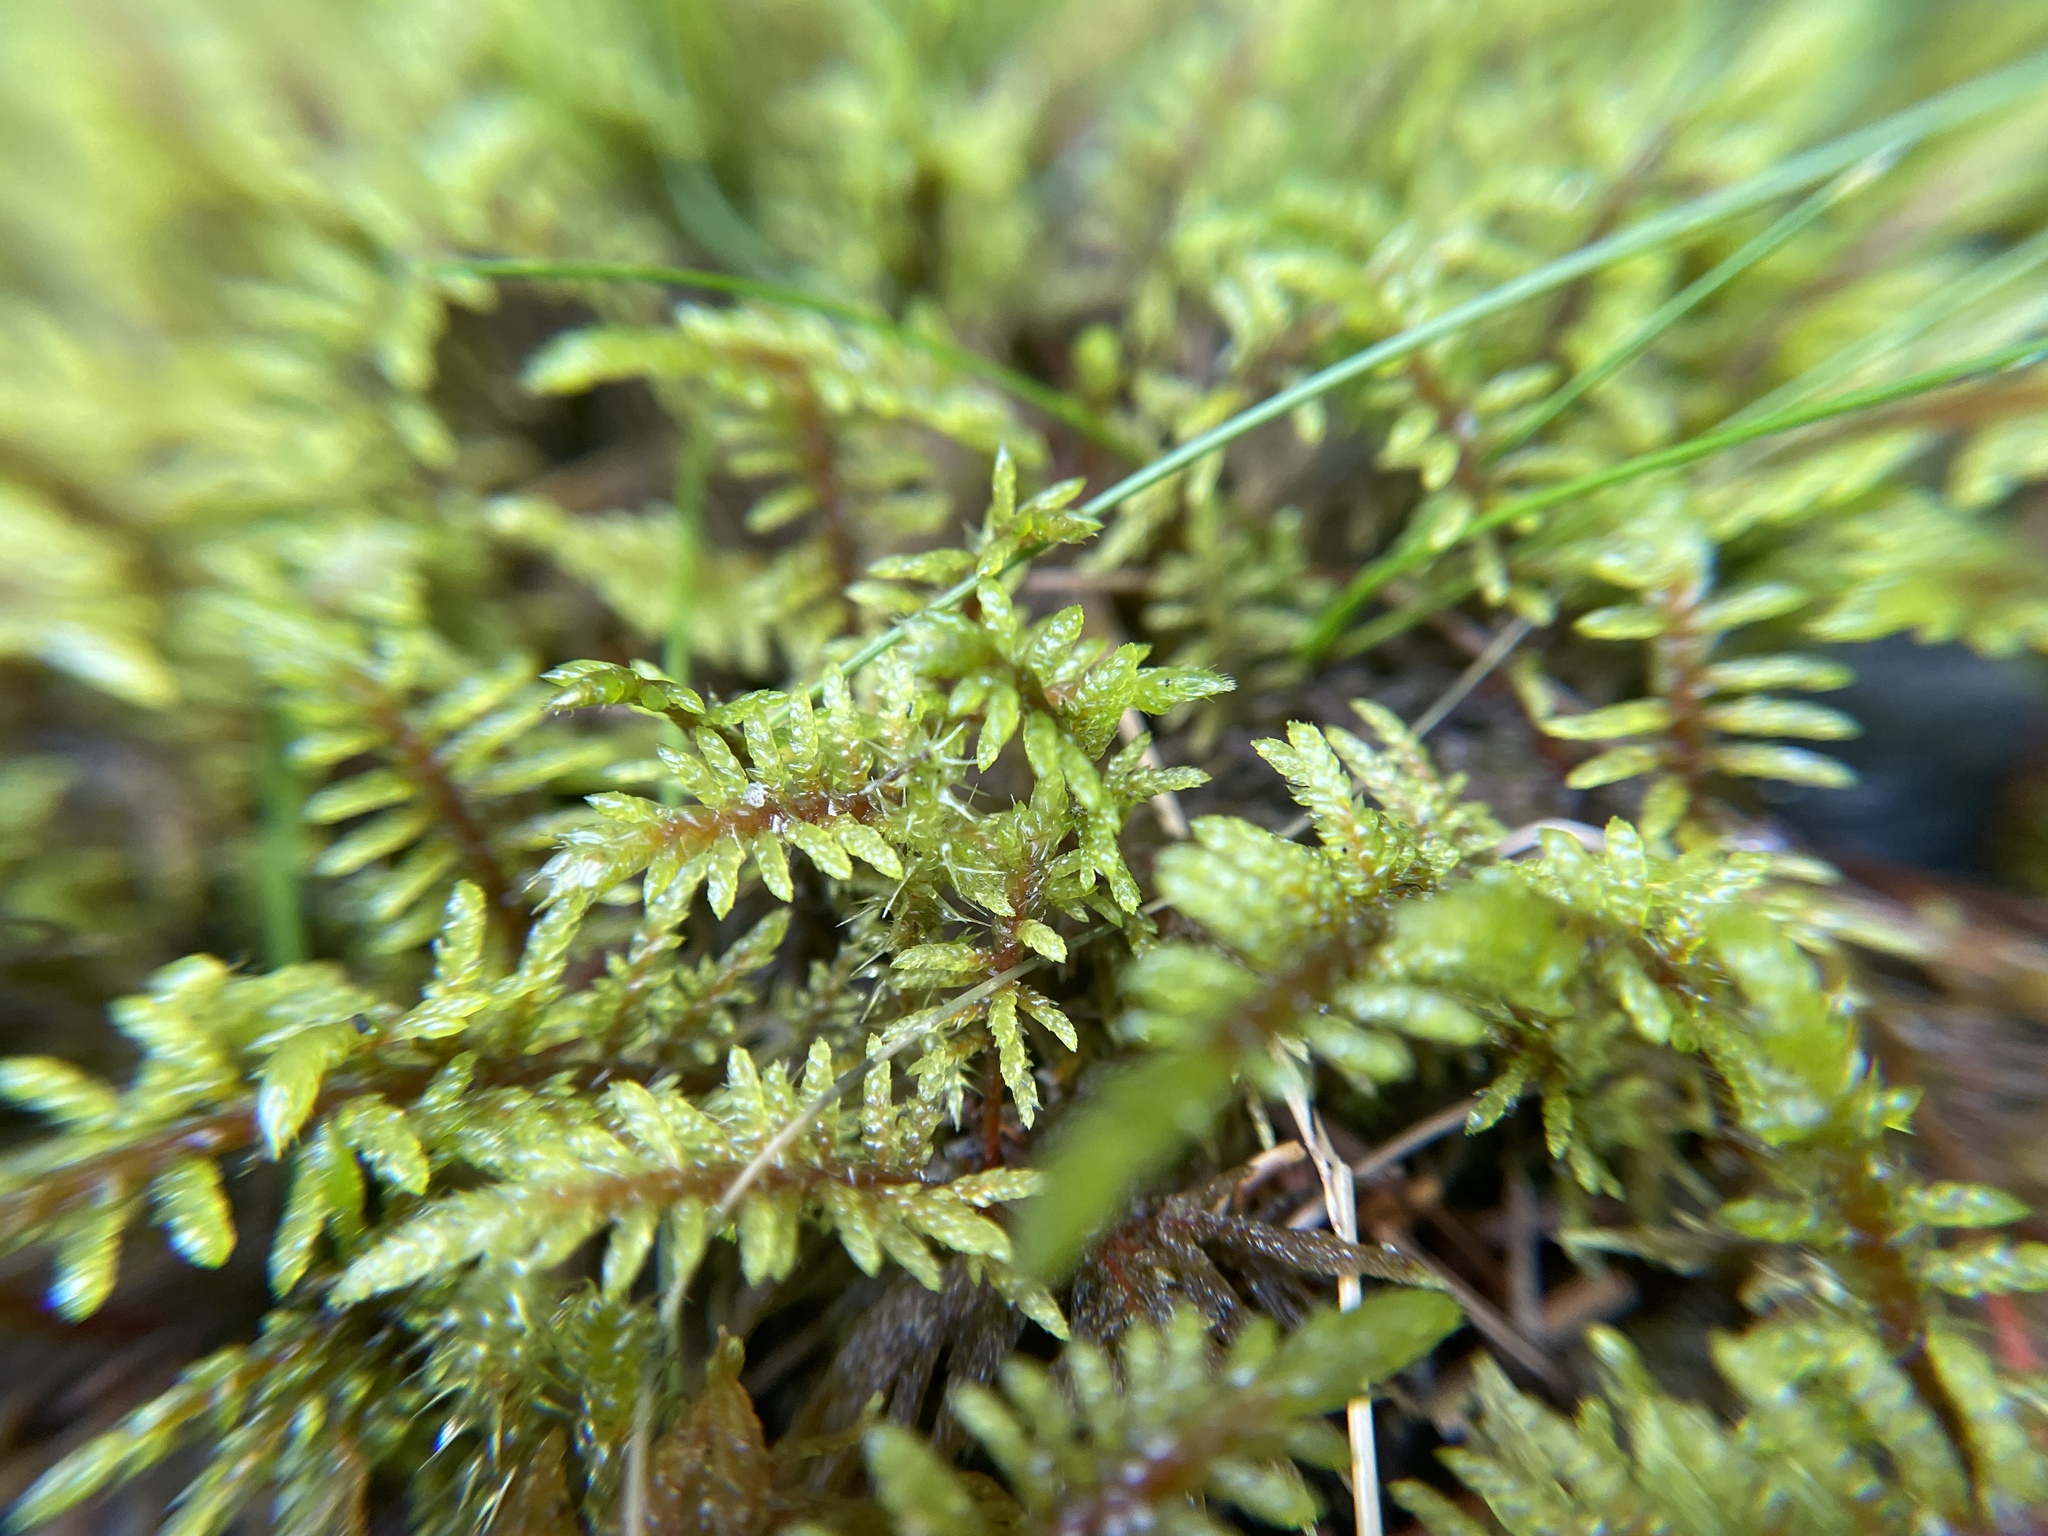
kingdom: Plantae
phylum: Bryophyta
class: Bryopsida
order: Hypnales
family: Hylocomiaceae
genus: Hylocomium
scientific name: Hylocomium splendens
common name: Stairstep moss
